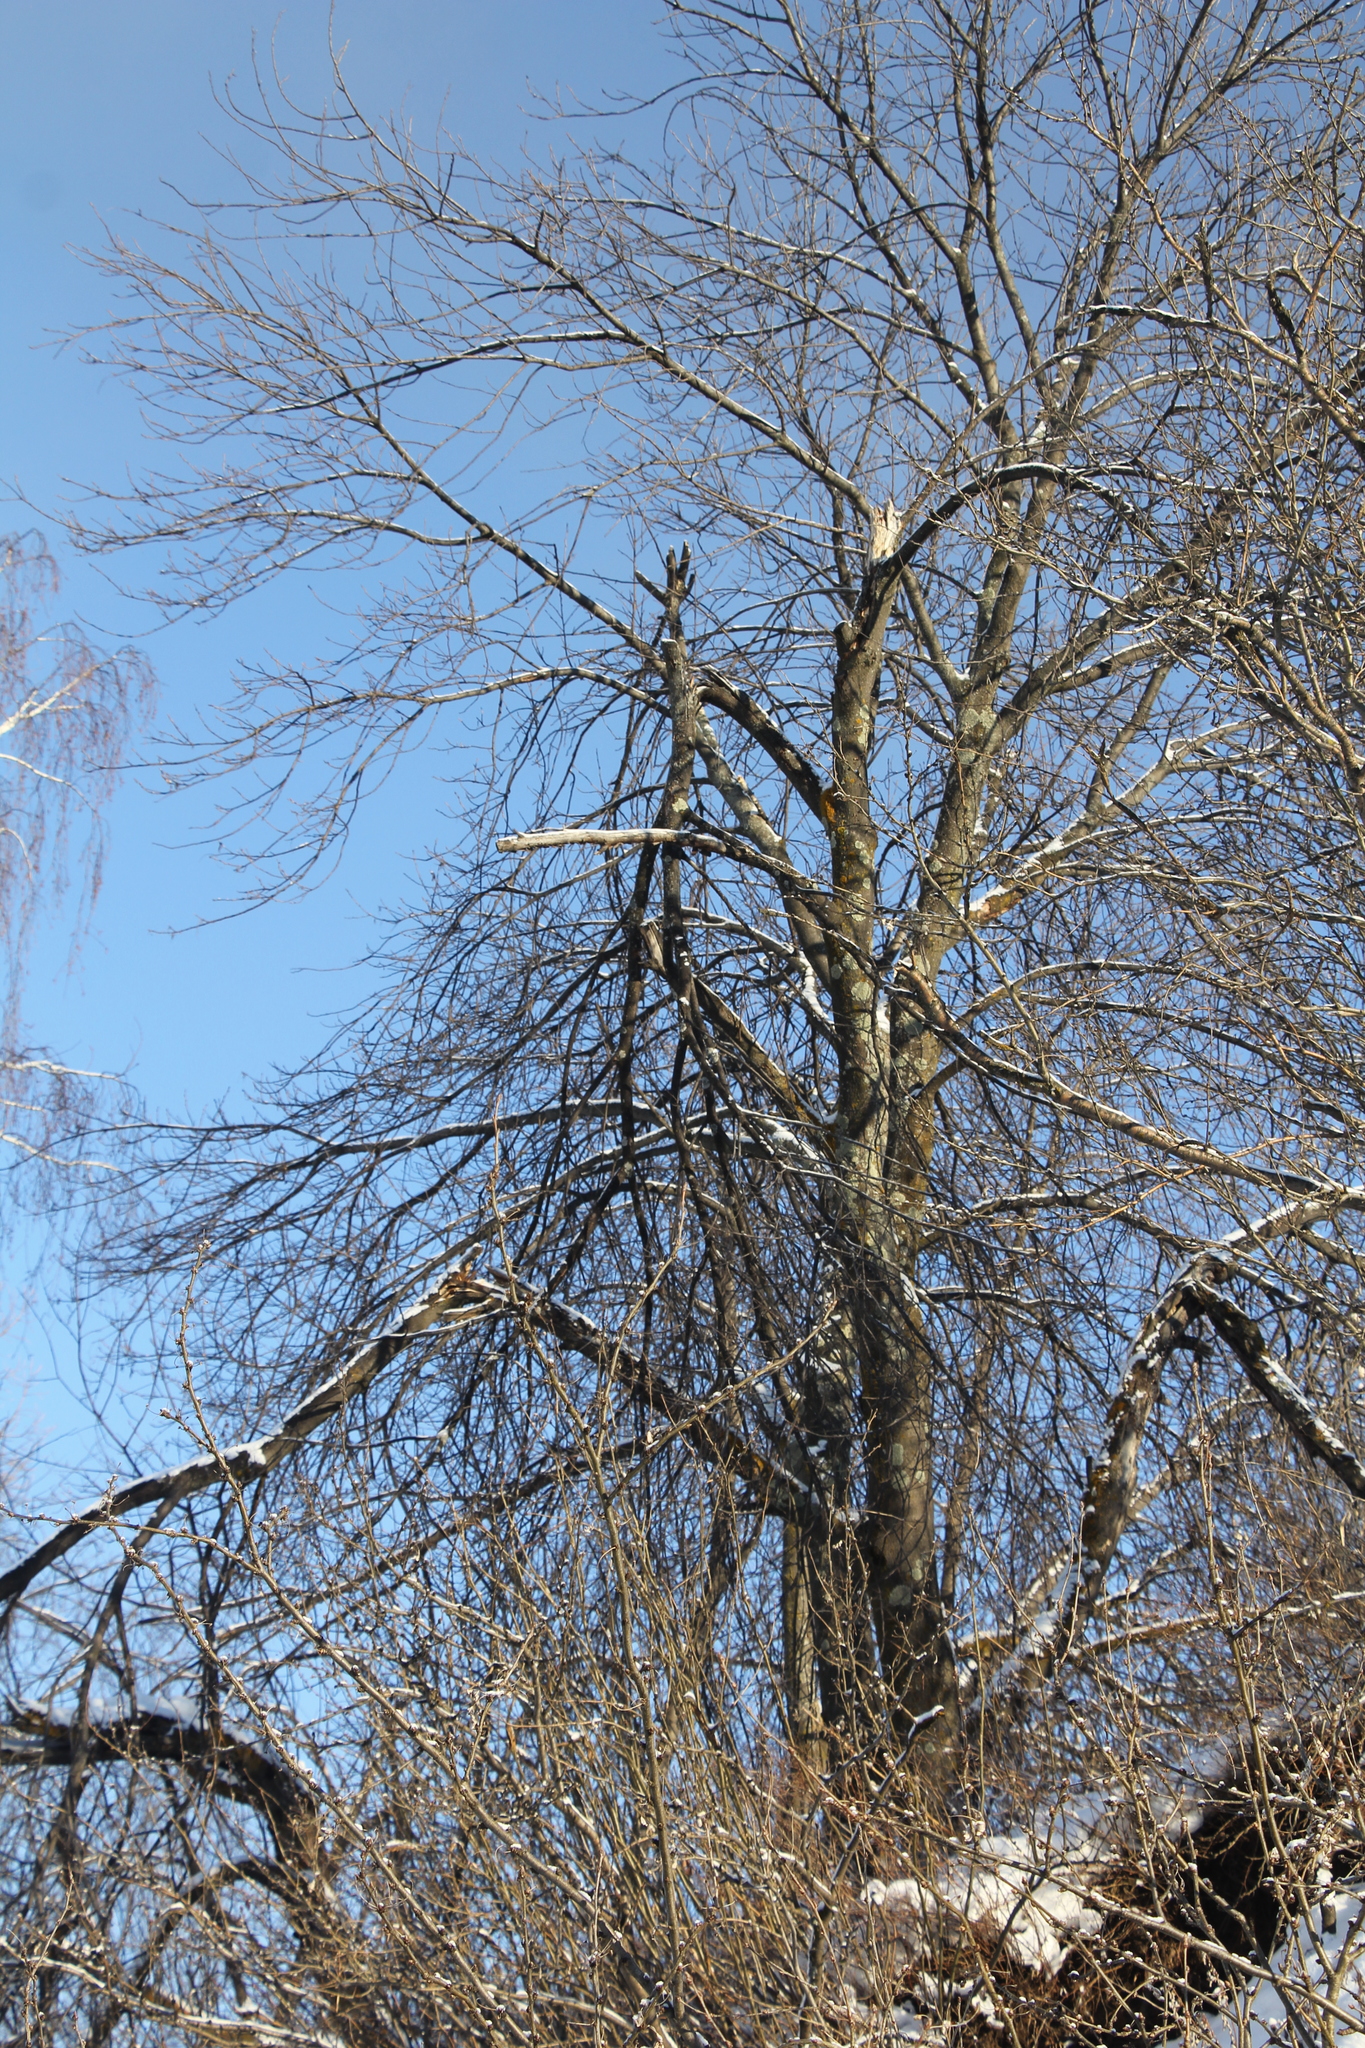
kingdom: Plantae
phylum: Tracheophyta
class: Magnoliopsida
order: Rosales
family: Rosaceae
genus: Prunus
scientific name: Prunus padus
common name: Bird cherry
